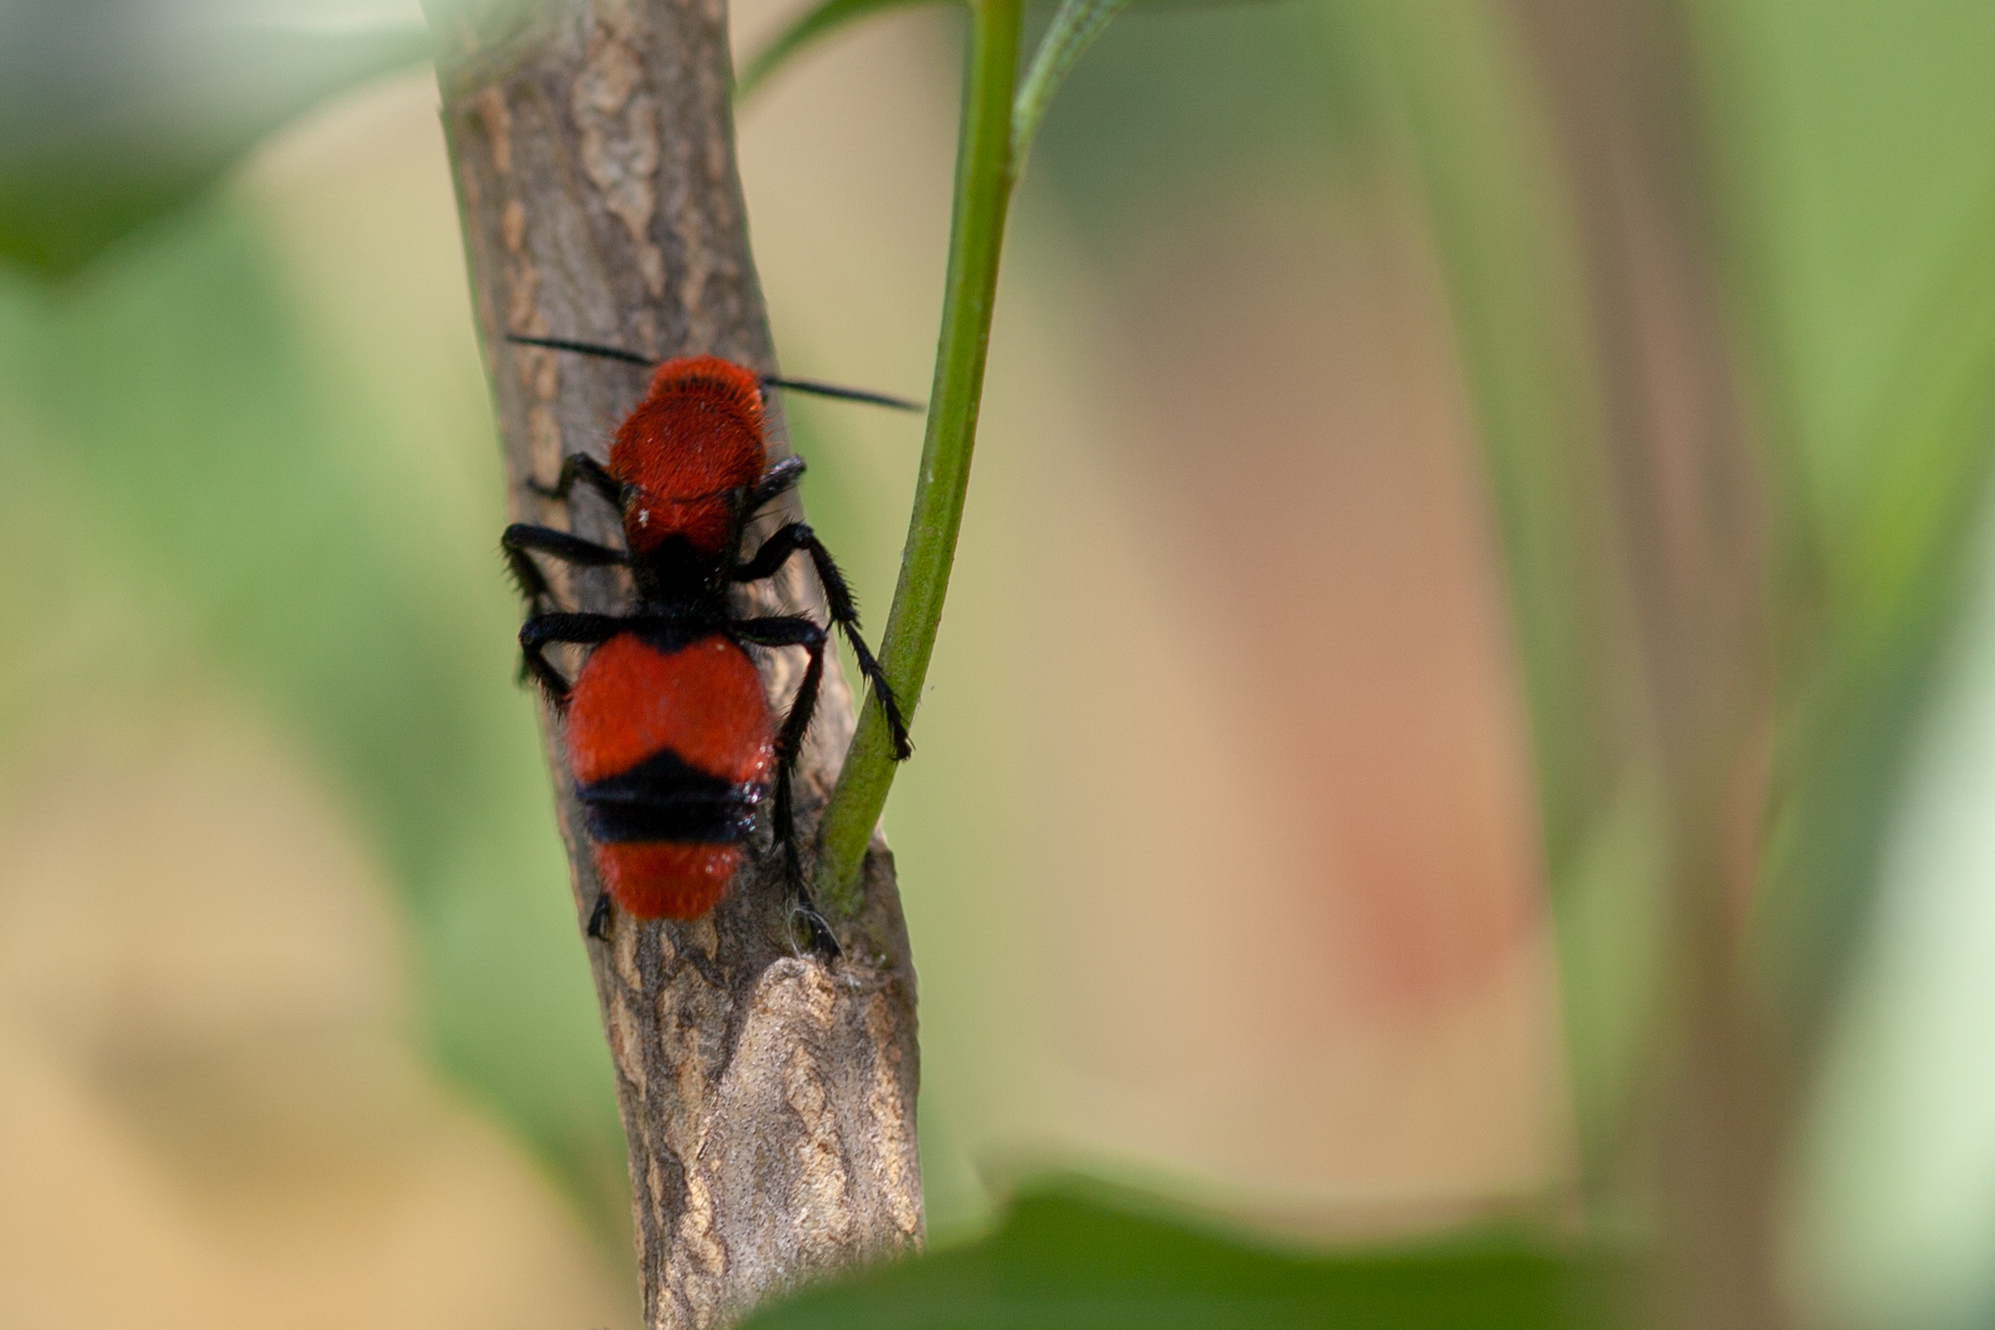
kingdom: Animalia
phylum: Arthropoda
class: Insecta
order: Hymenoptera
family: Mutillidae
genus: Dasymutilla
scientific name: Dasymutilla occidentalis
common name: Common eastern velvet ant
